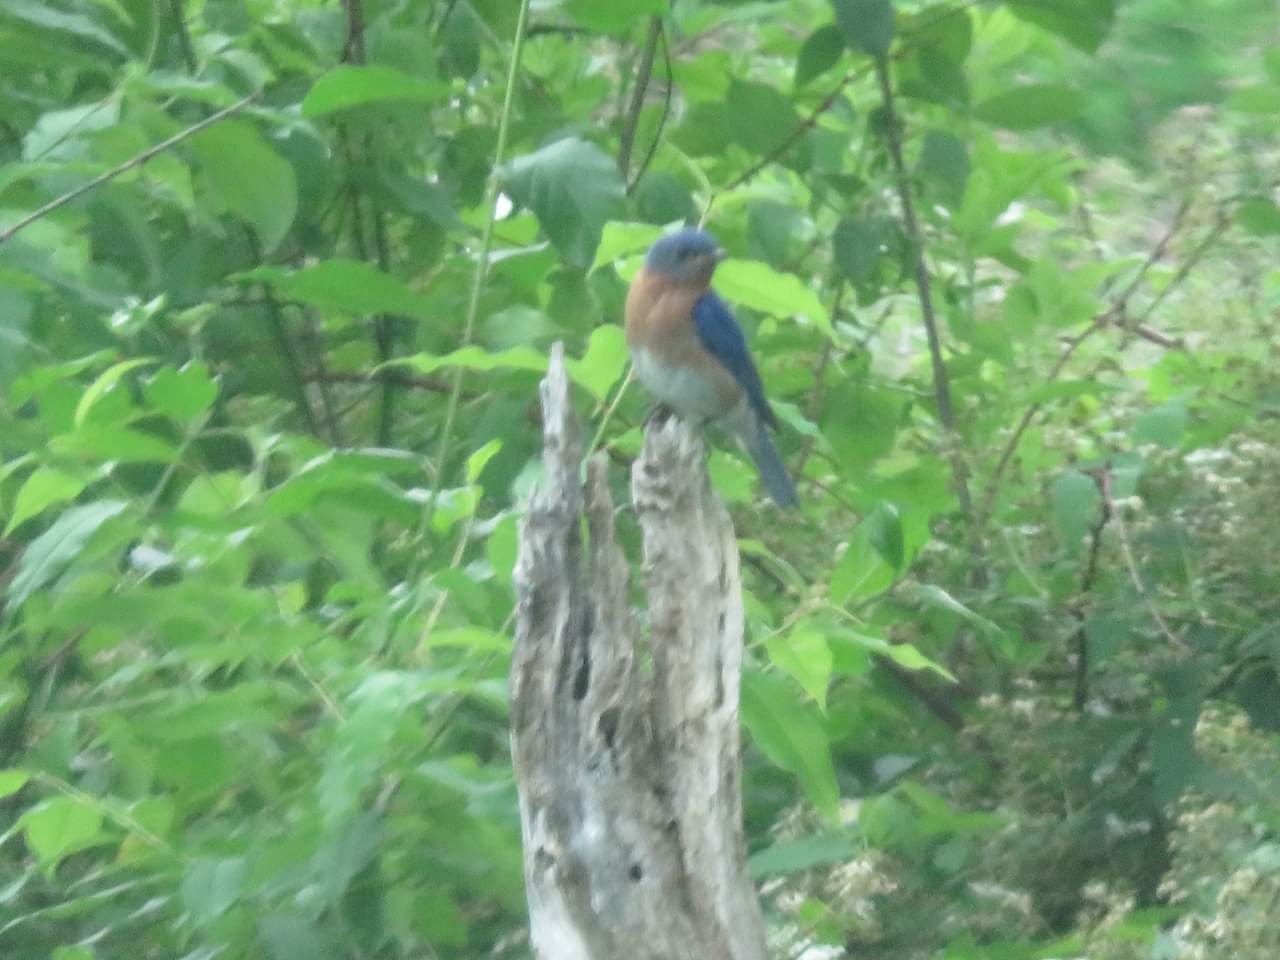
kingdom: Animalia
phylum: Chordata
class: Aves
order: Passeriformes
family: Turdidae
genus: Sialia
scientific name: Sialia sialis
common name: Eastern bluebird
